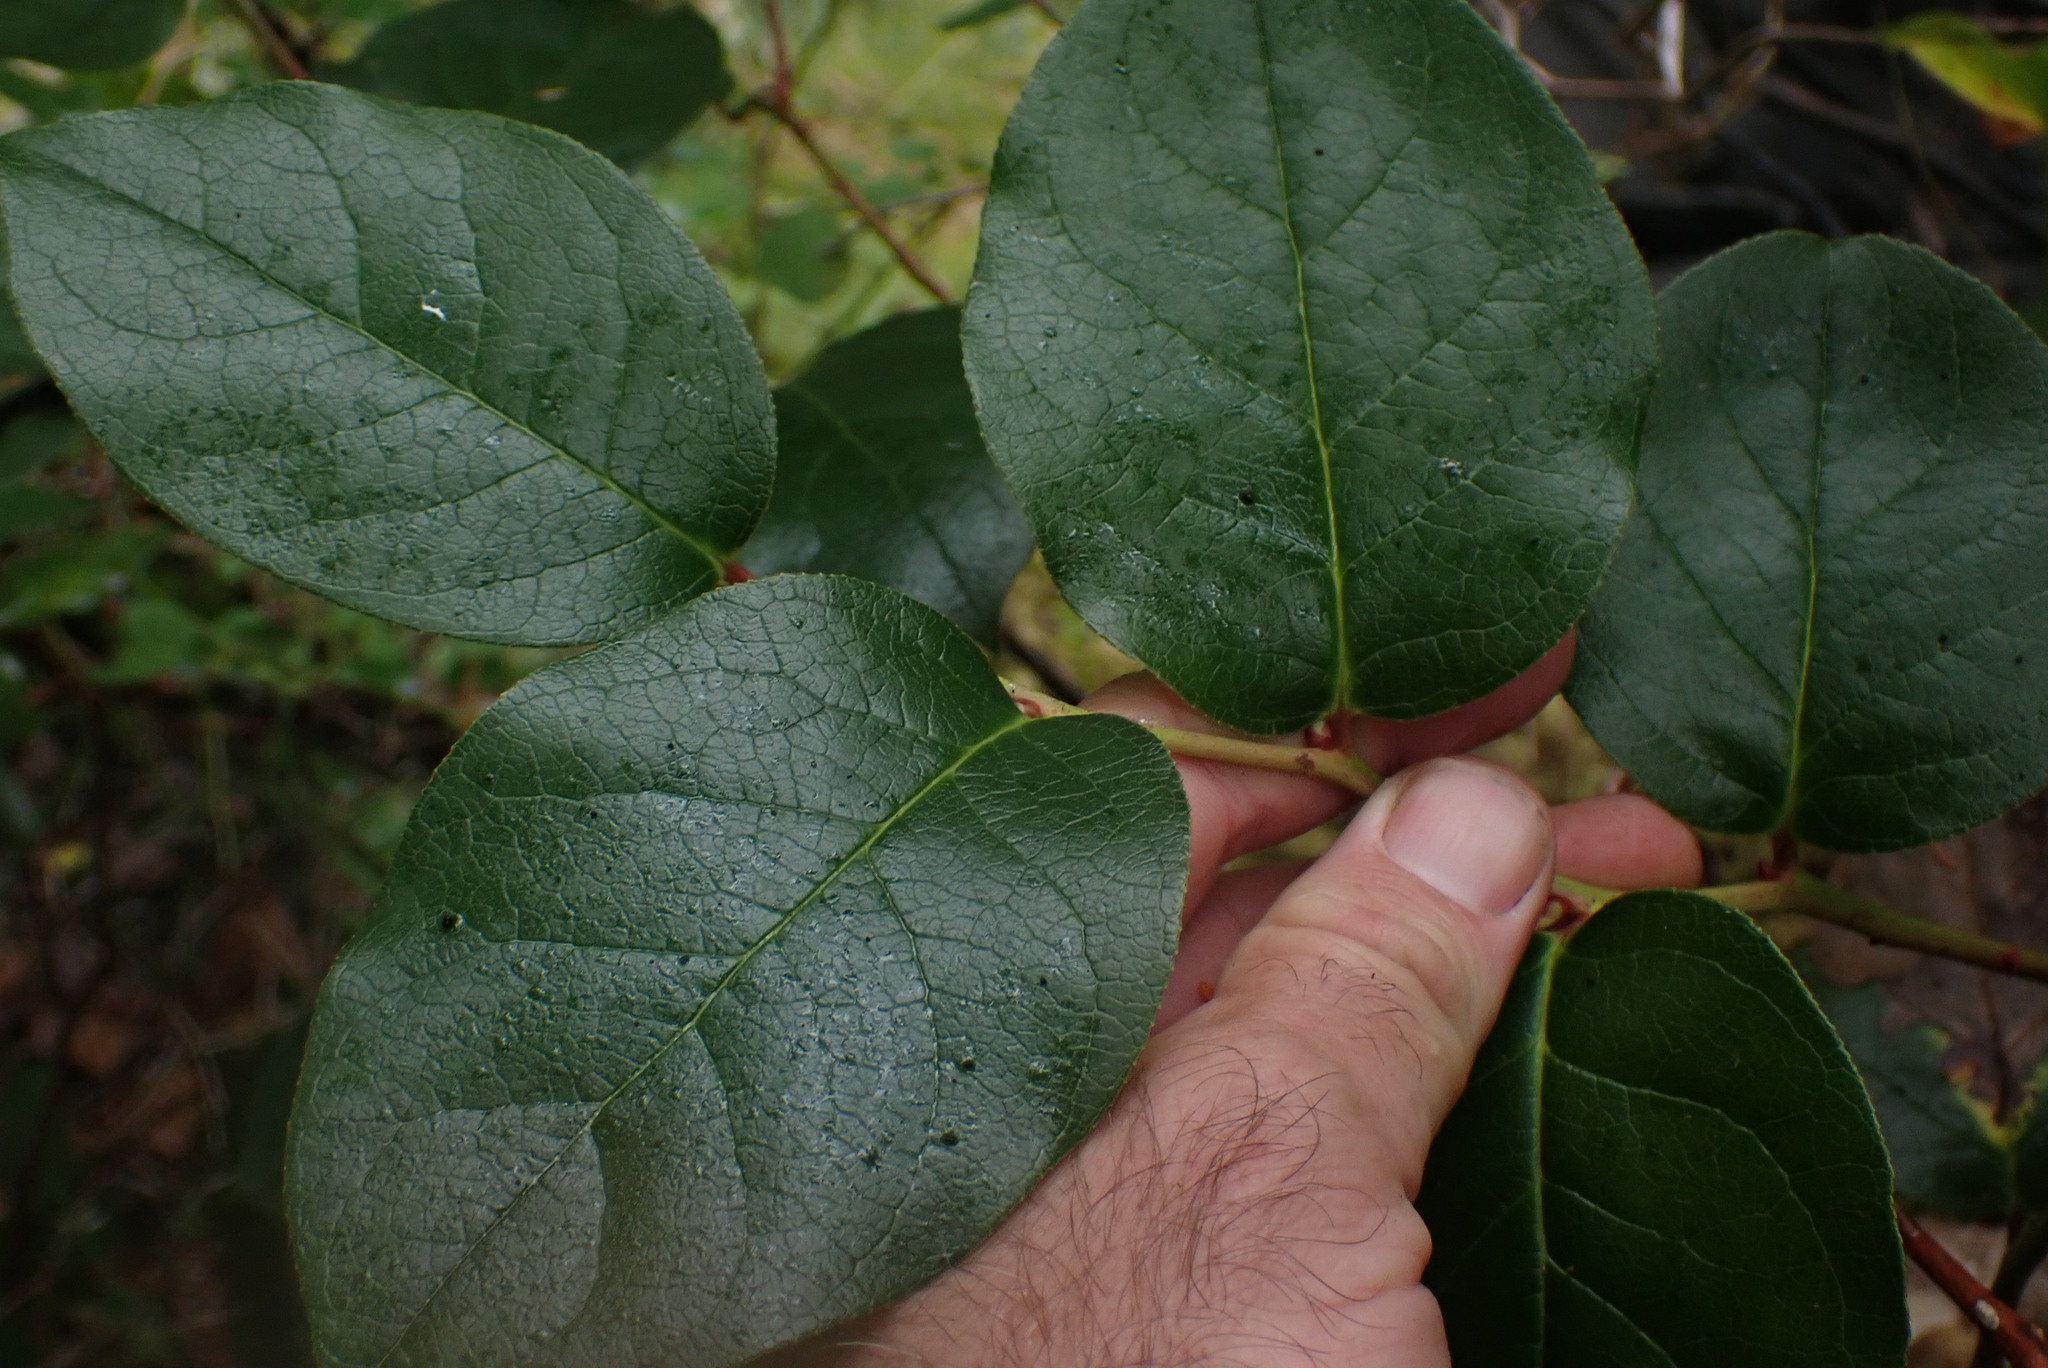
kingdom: Plantae
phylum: Tracheophyta
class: Magnoliopsida
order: Ericales
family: Ericaceae
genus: Gaultheria
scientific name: Gaultheria shallon
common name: Shallon
